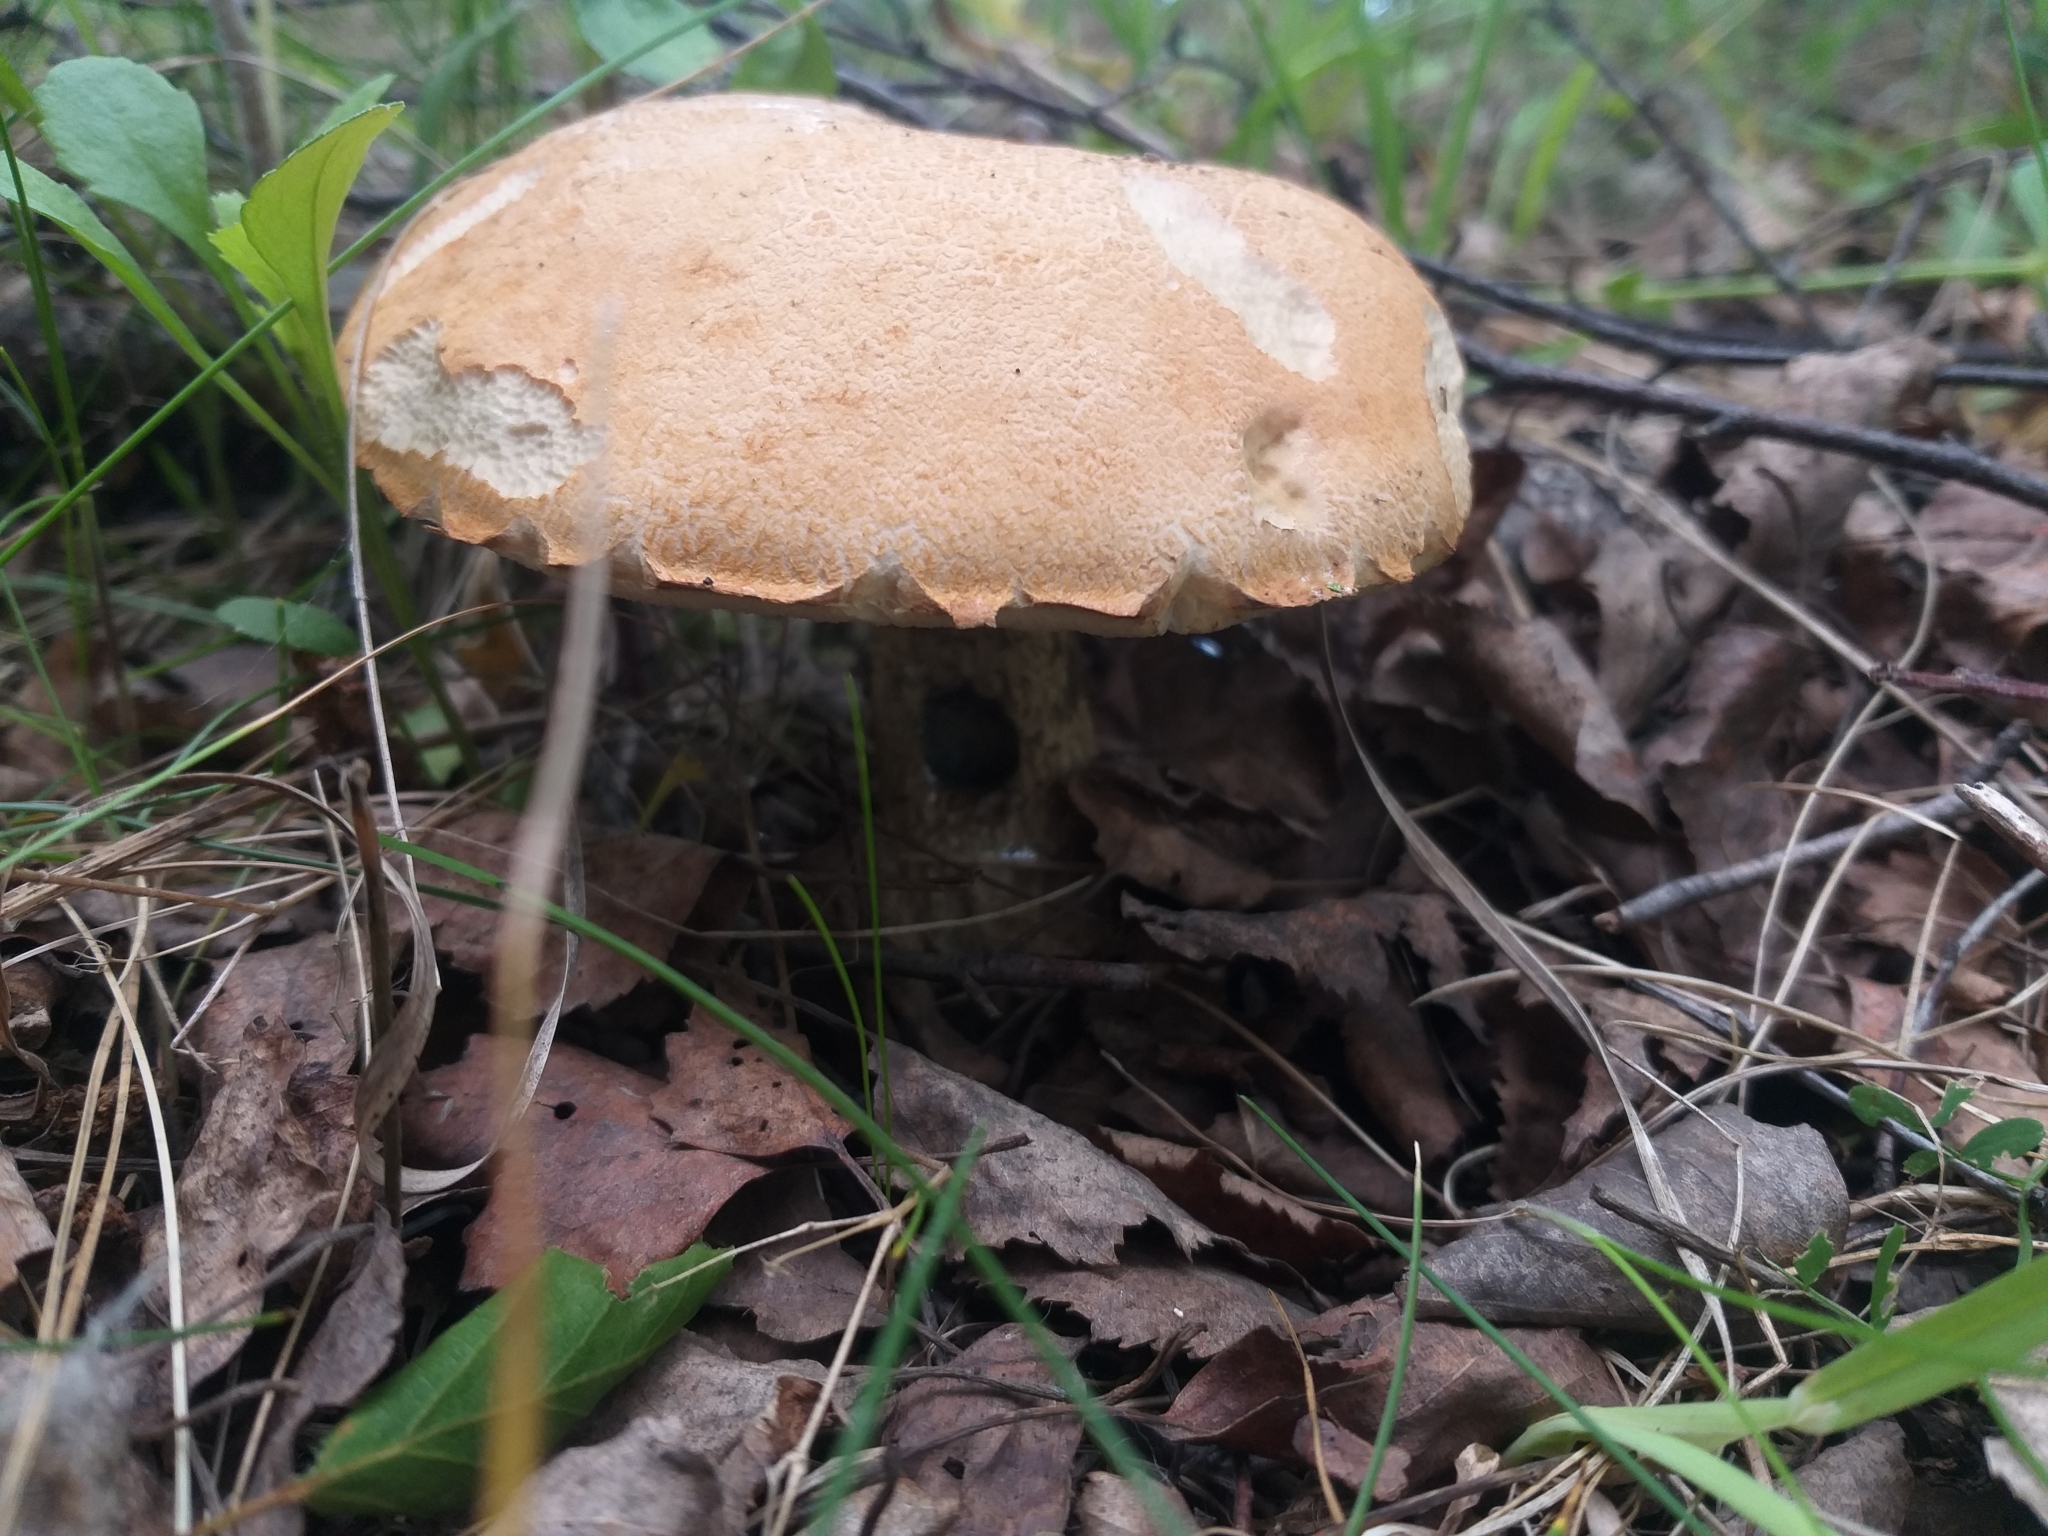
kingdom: Fungi
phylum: Basidiomycota
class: Agaricomycetes
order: Boletales
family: Boletaceae
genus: Leccinum
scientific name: Leccinum versipelle
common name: Orange birch bolete
